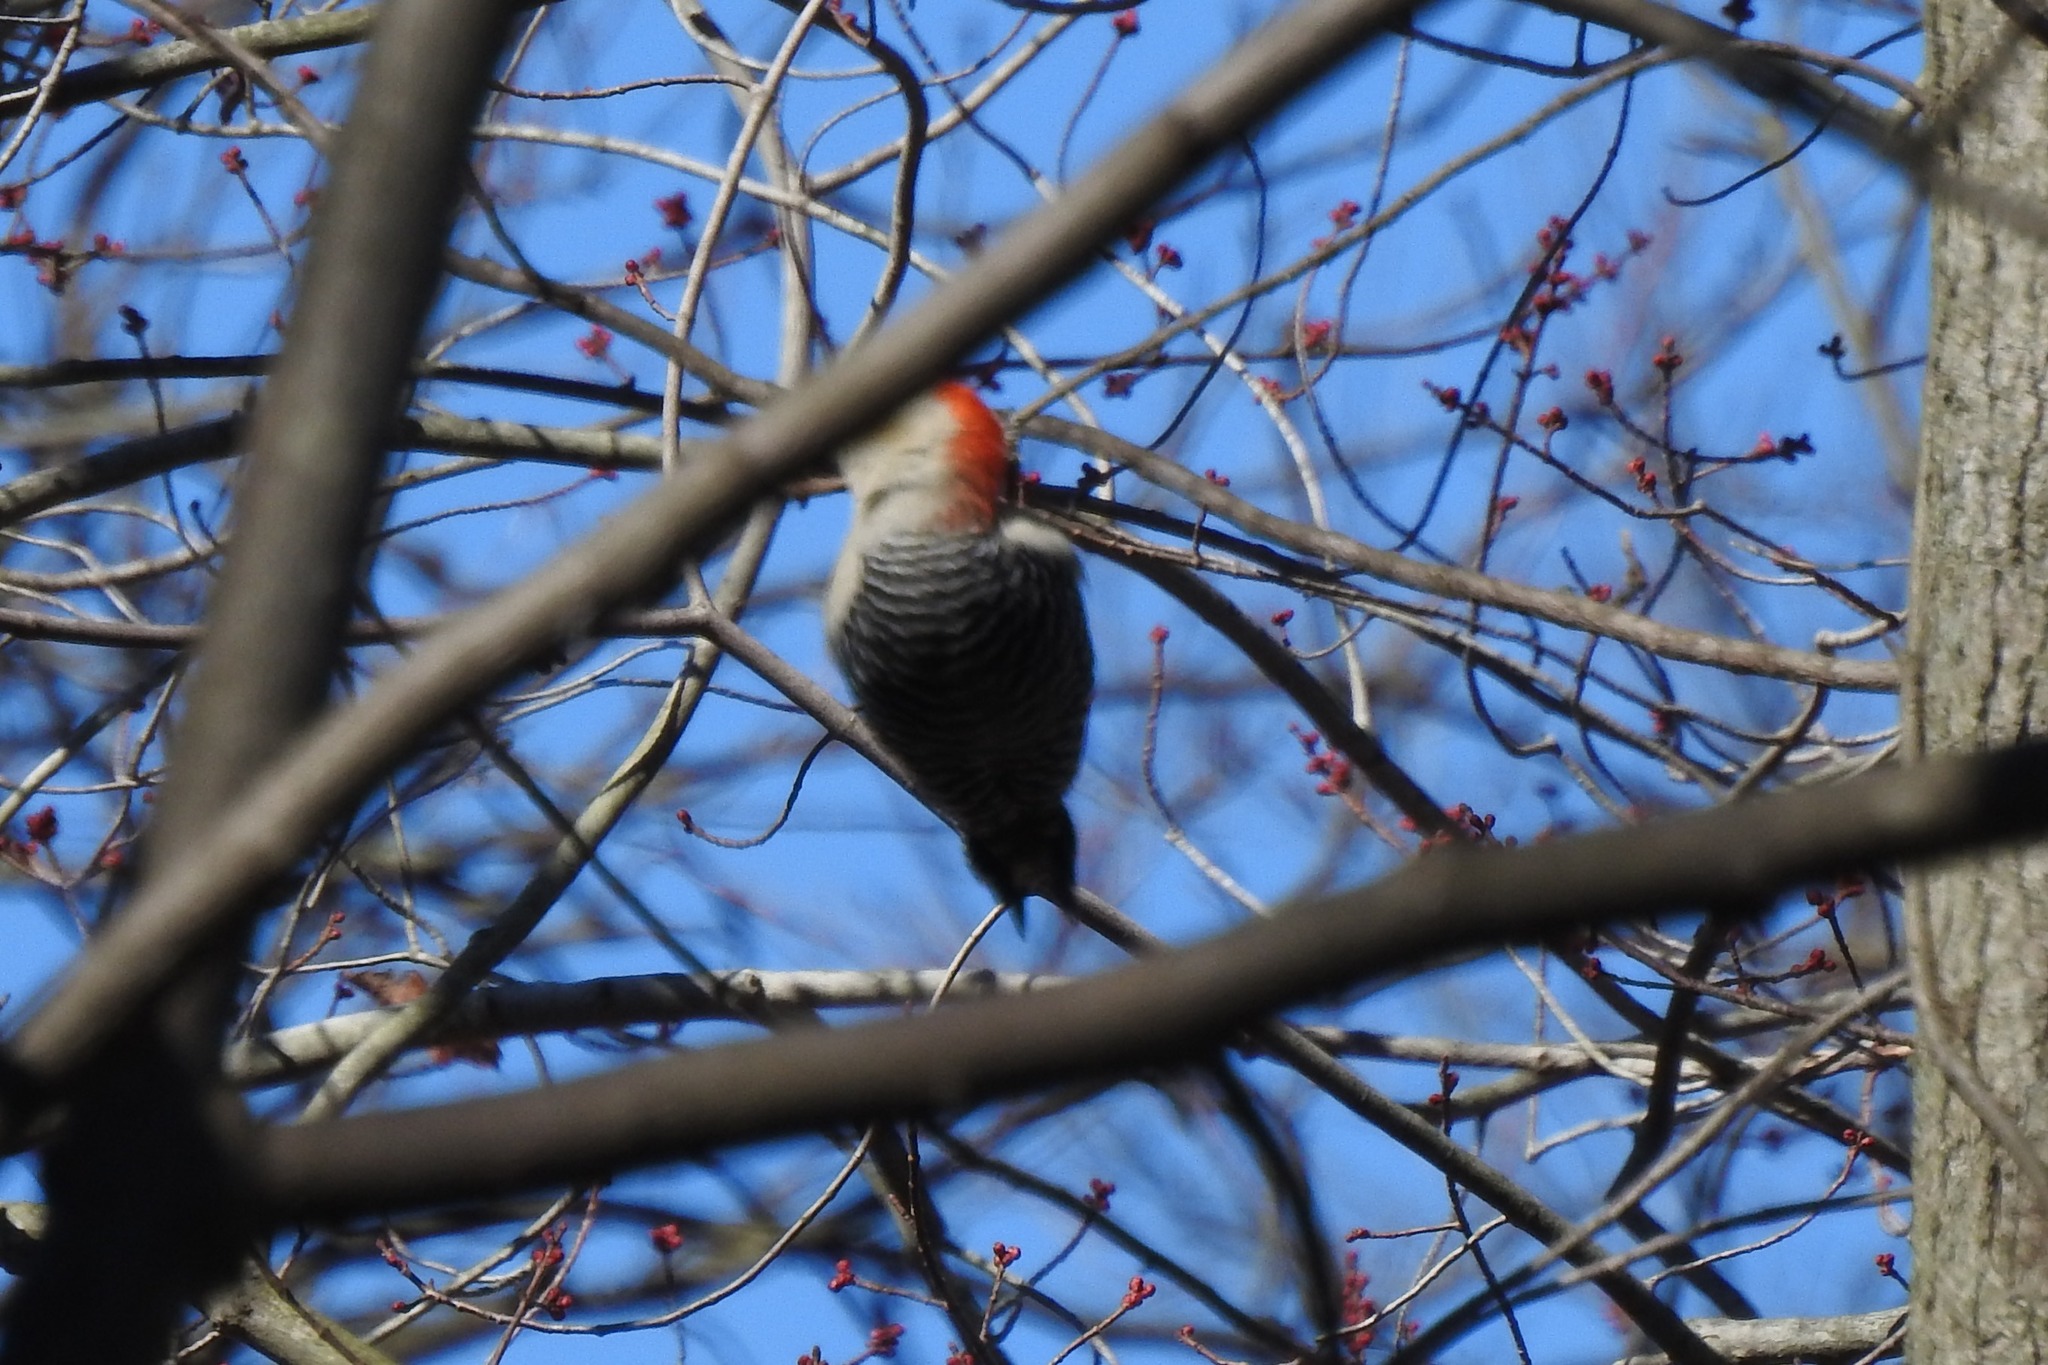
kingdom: Animalia
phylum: Chordata
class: Aves
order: Piciformes
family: Picidae
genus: Melanerpes
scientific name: Melanerpes carolinus
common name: Red-bellied woodpecker
